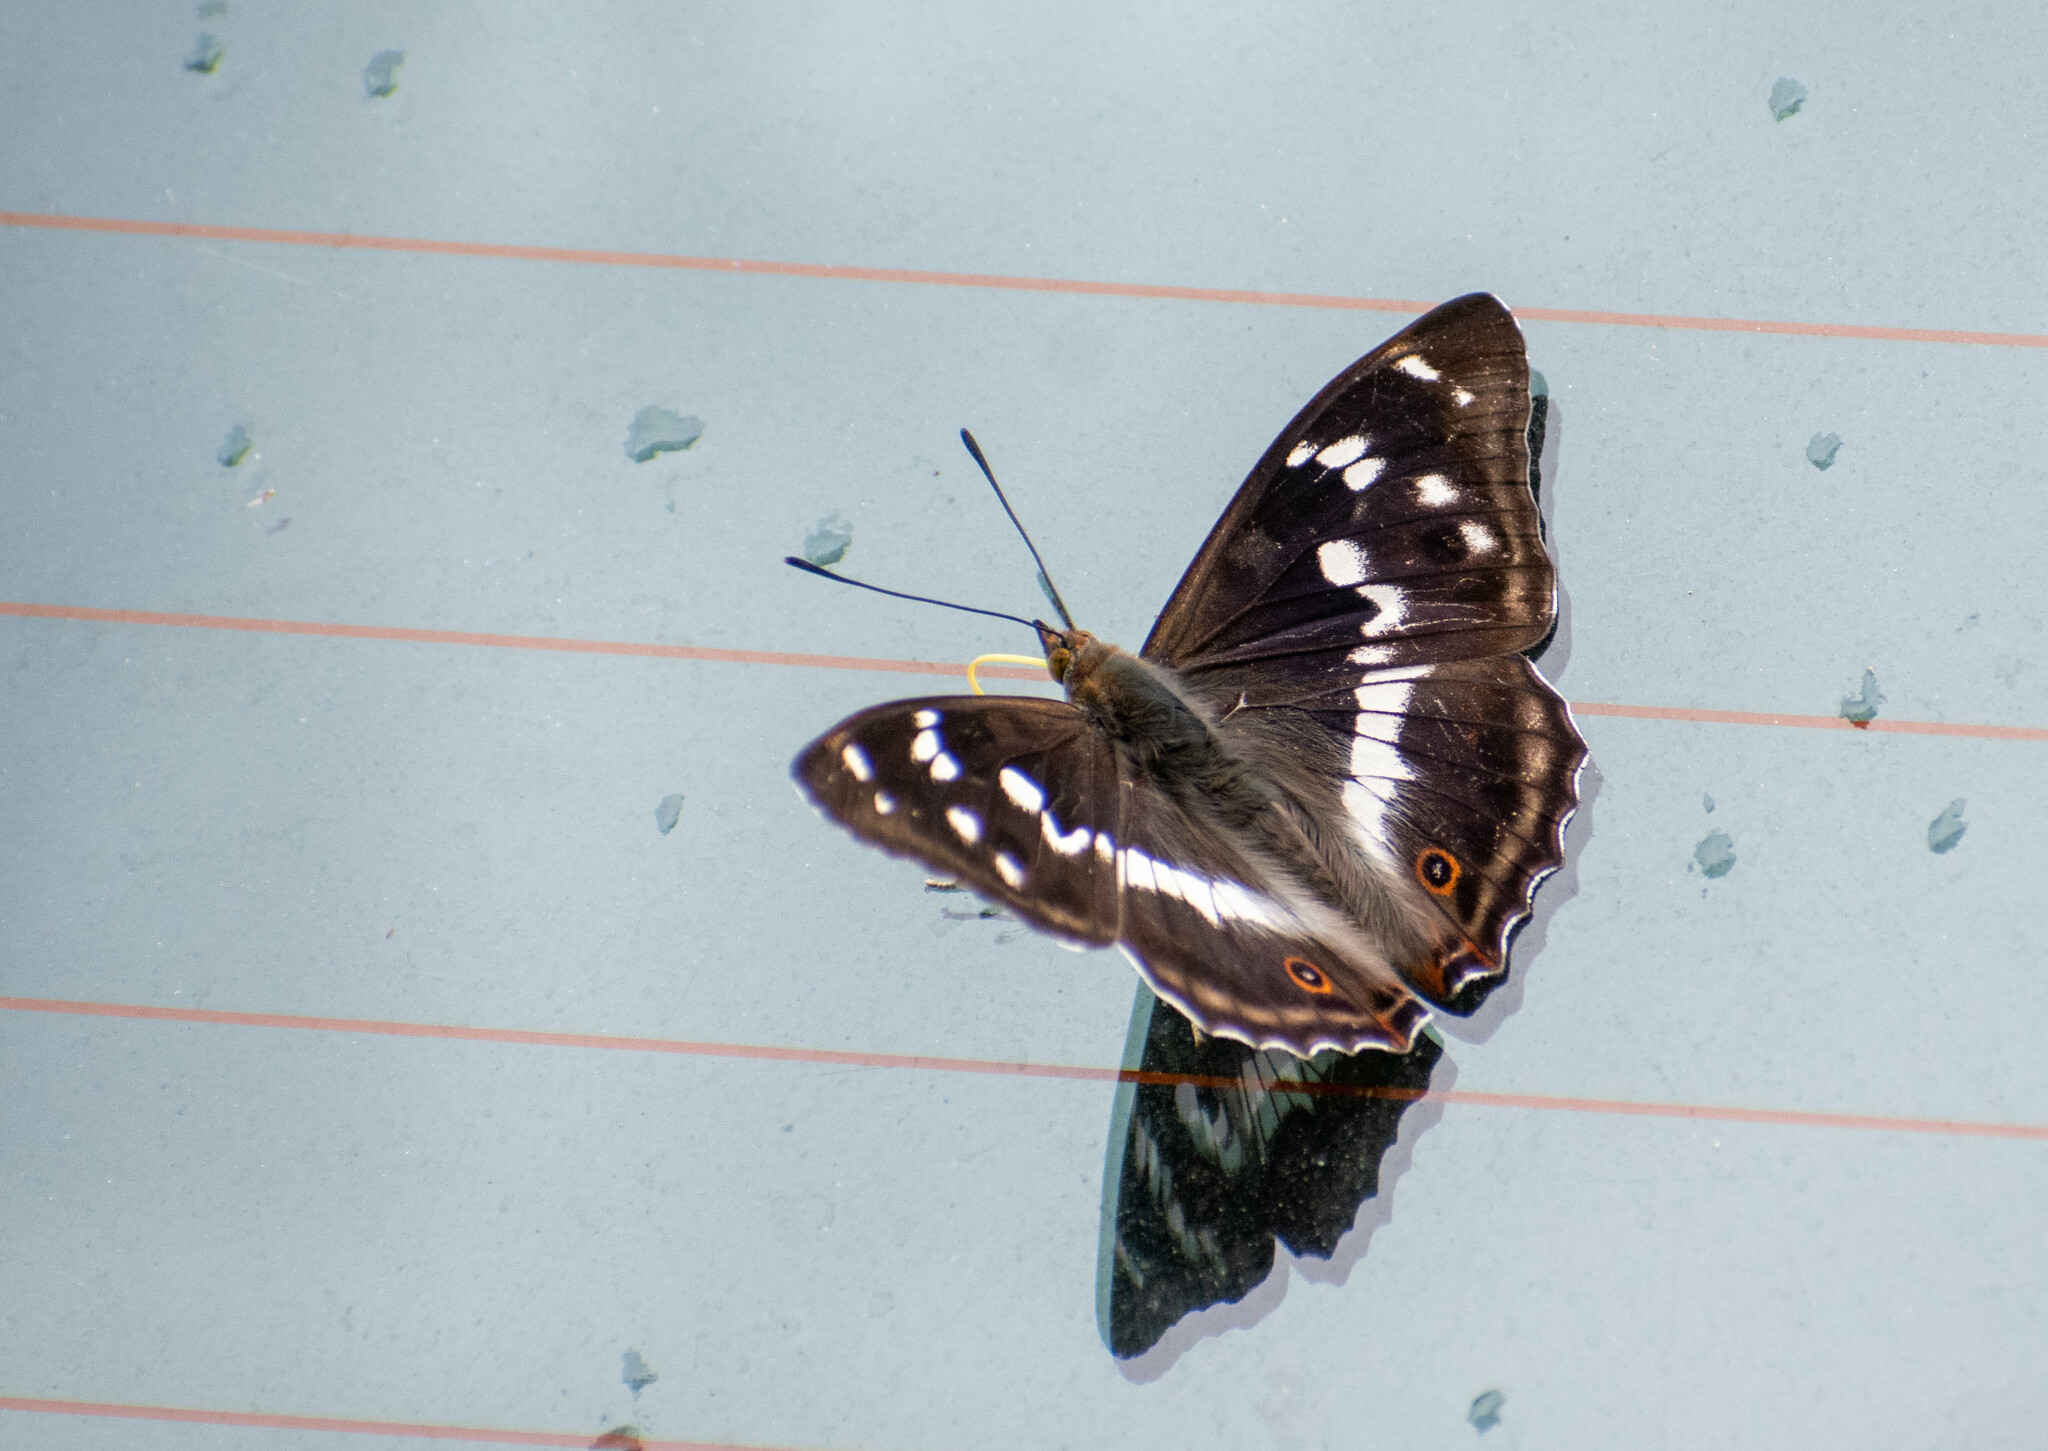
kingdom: Animalia
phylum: Arthropoda
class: Insecta
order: Lepidoptera
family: Nymphalidae
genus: Apatura
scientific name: Apatura iris
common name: Purple emperor
